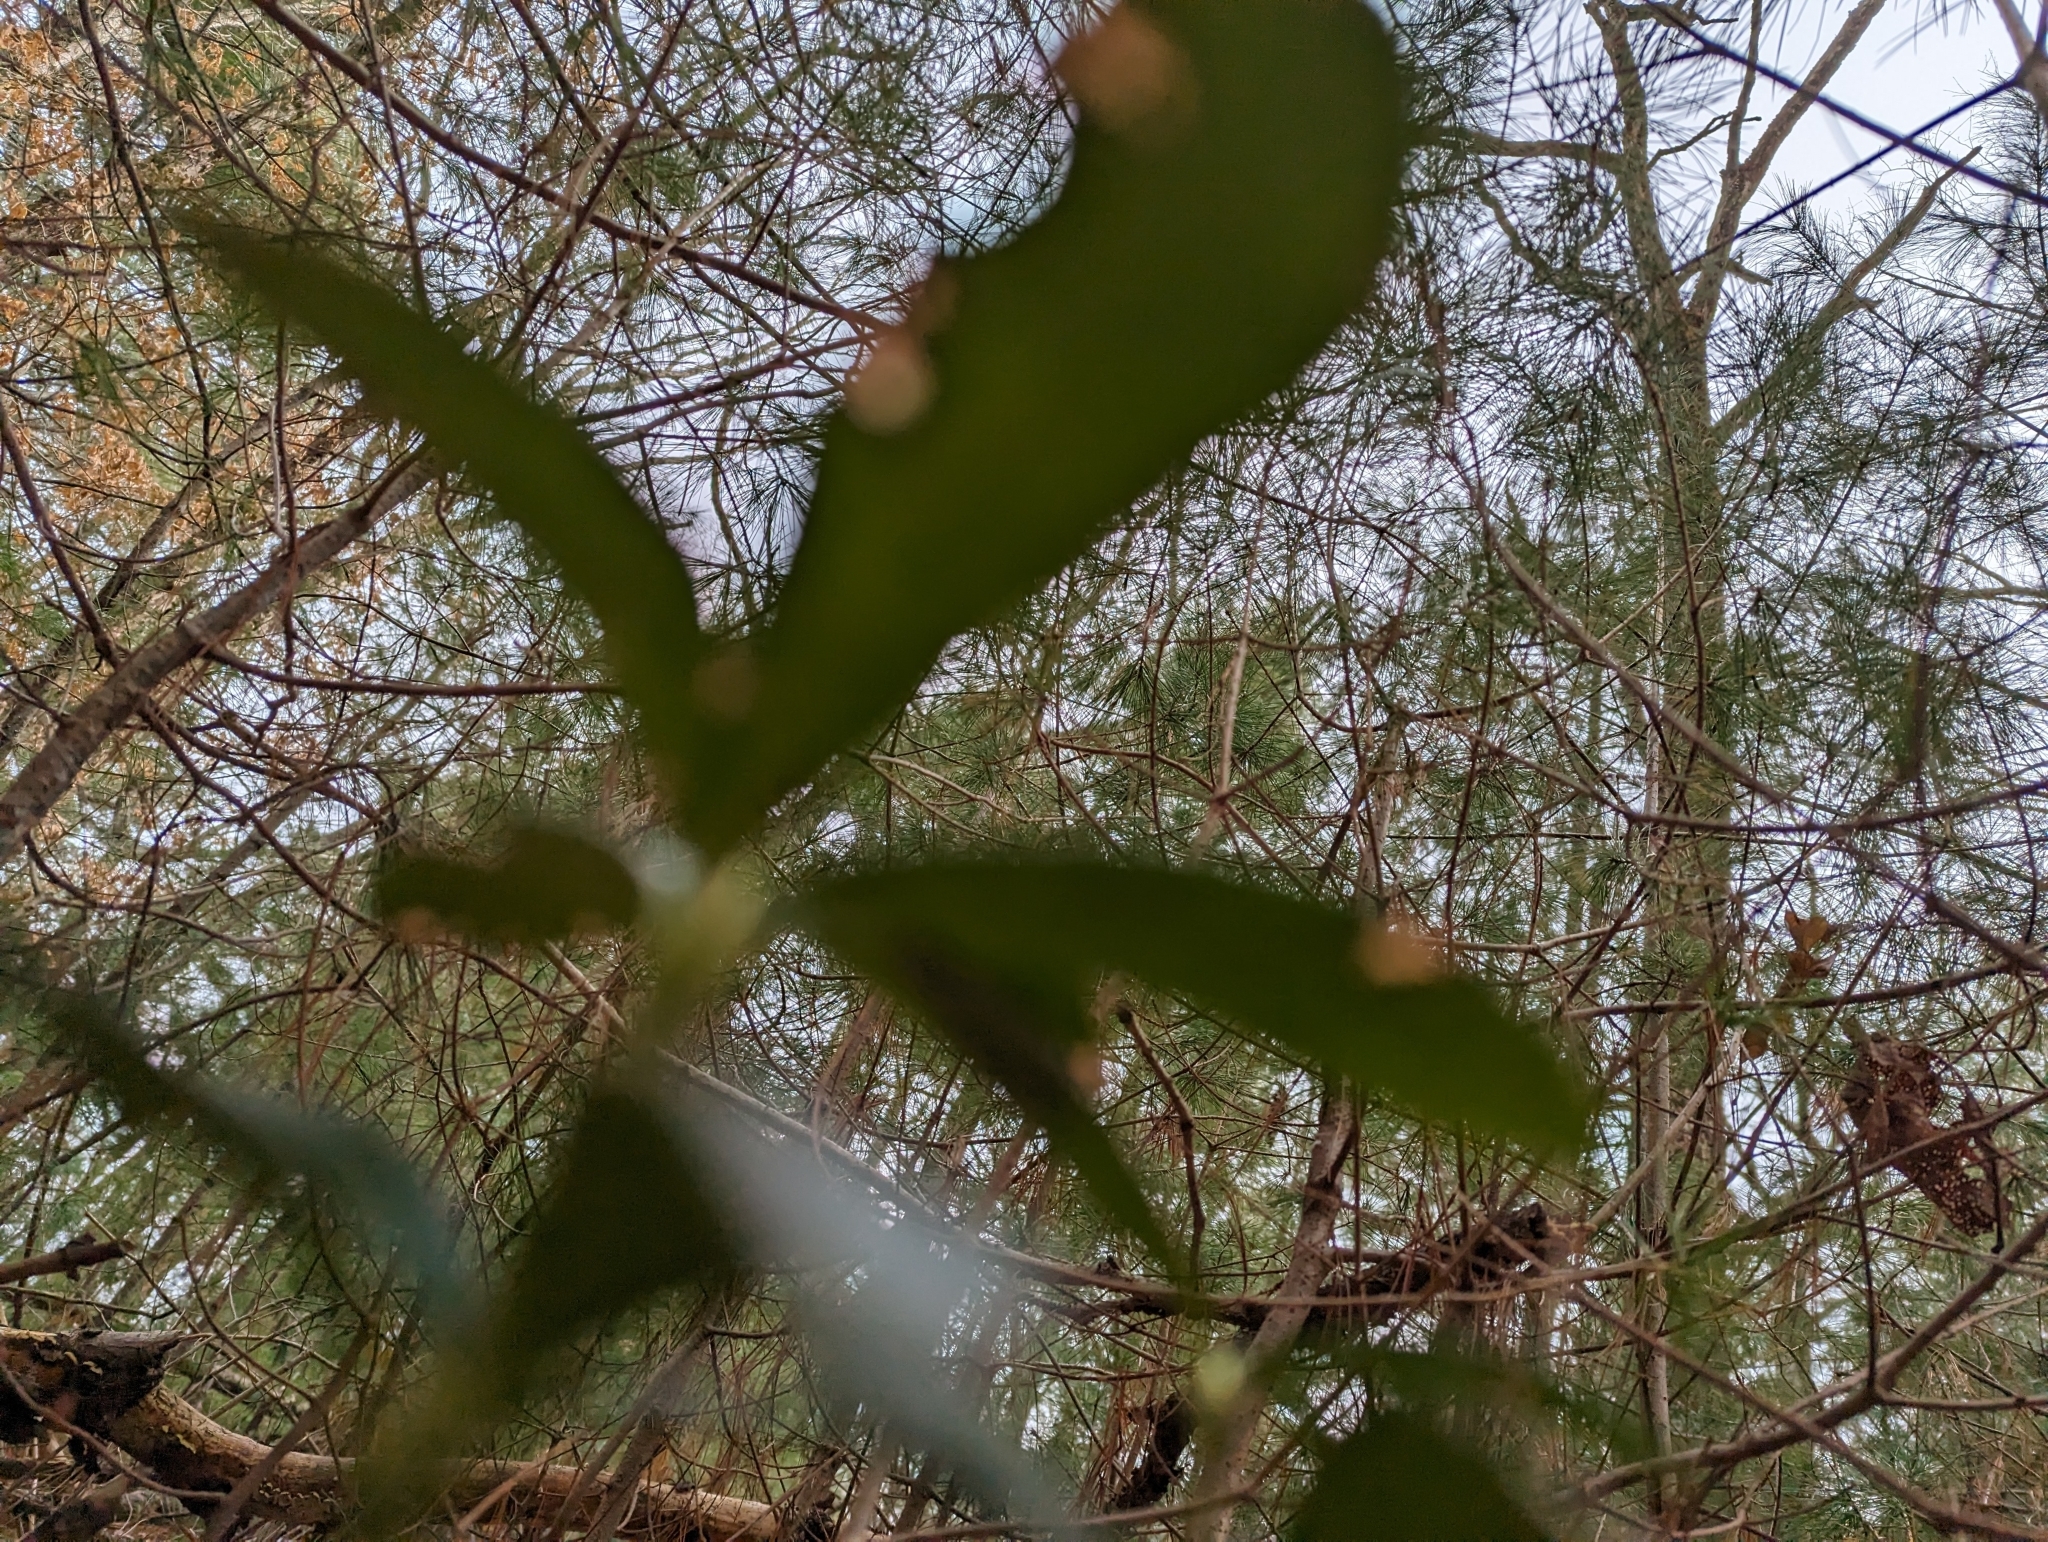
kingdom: Plantae
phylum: Tracheophyta
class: Magnoliopsida
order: Ericales
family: Ericaceae
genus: Chimaphila
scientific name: Chimaphila umbellata
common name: Pipsissewa
